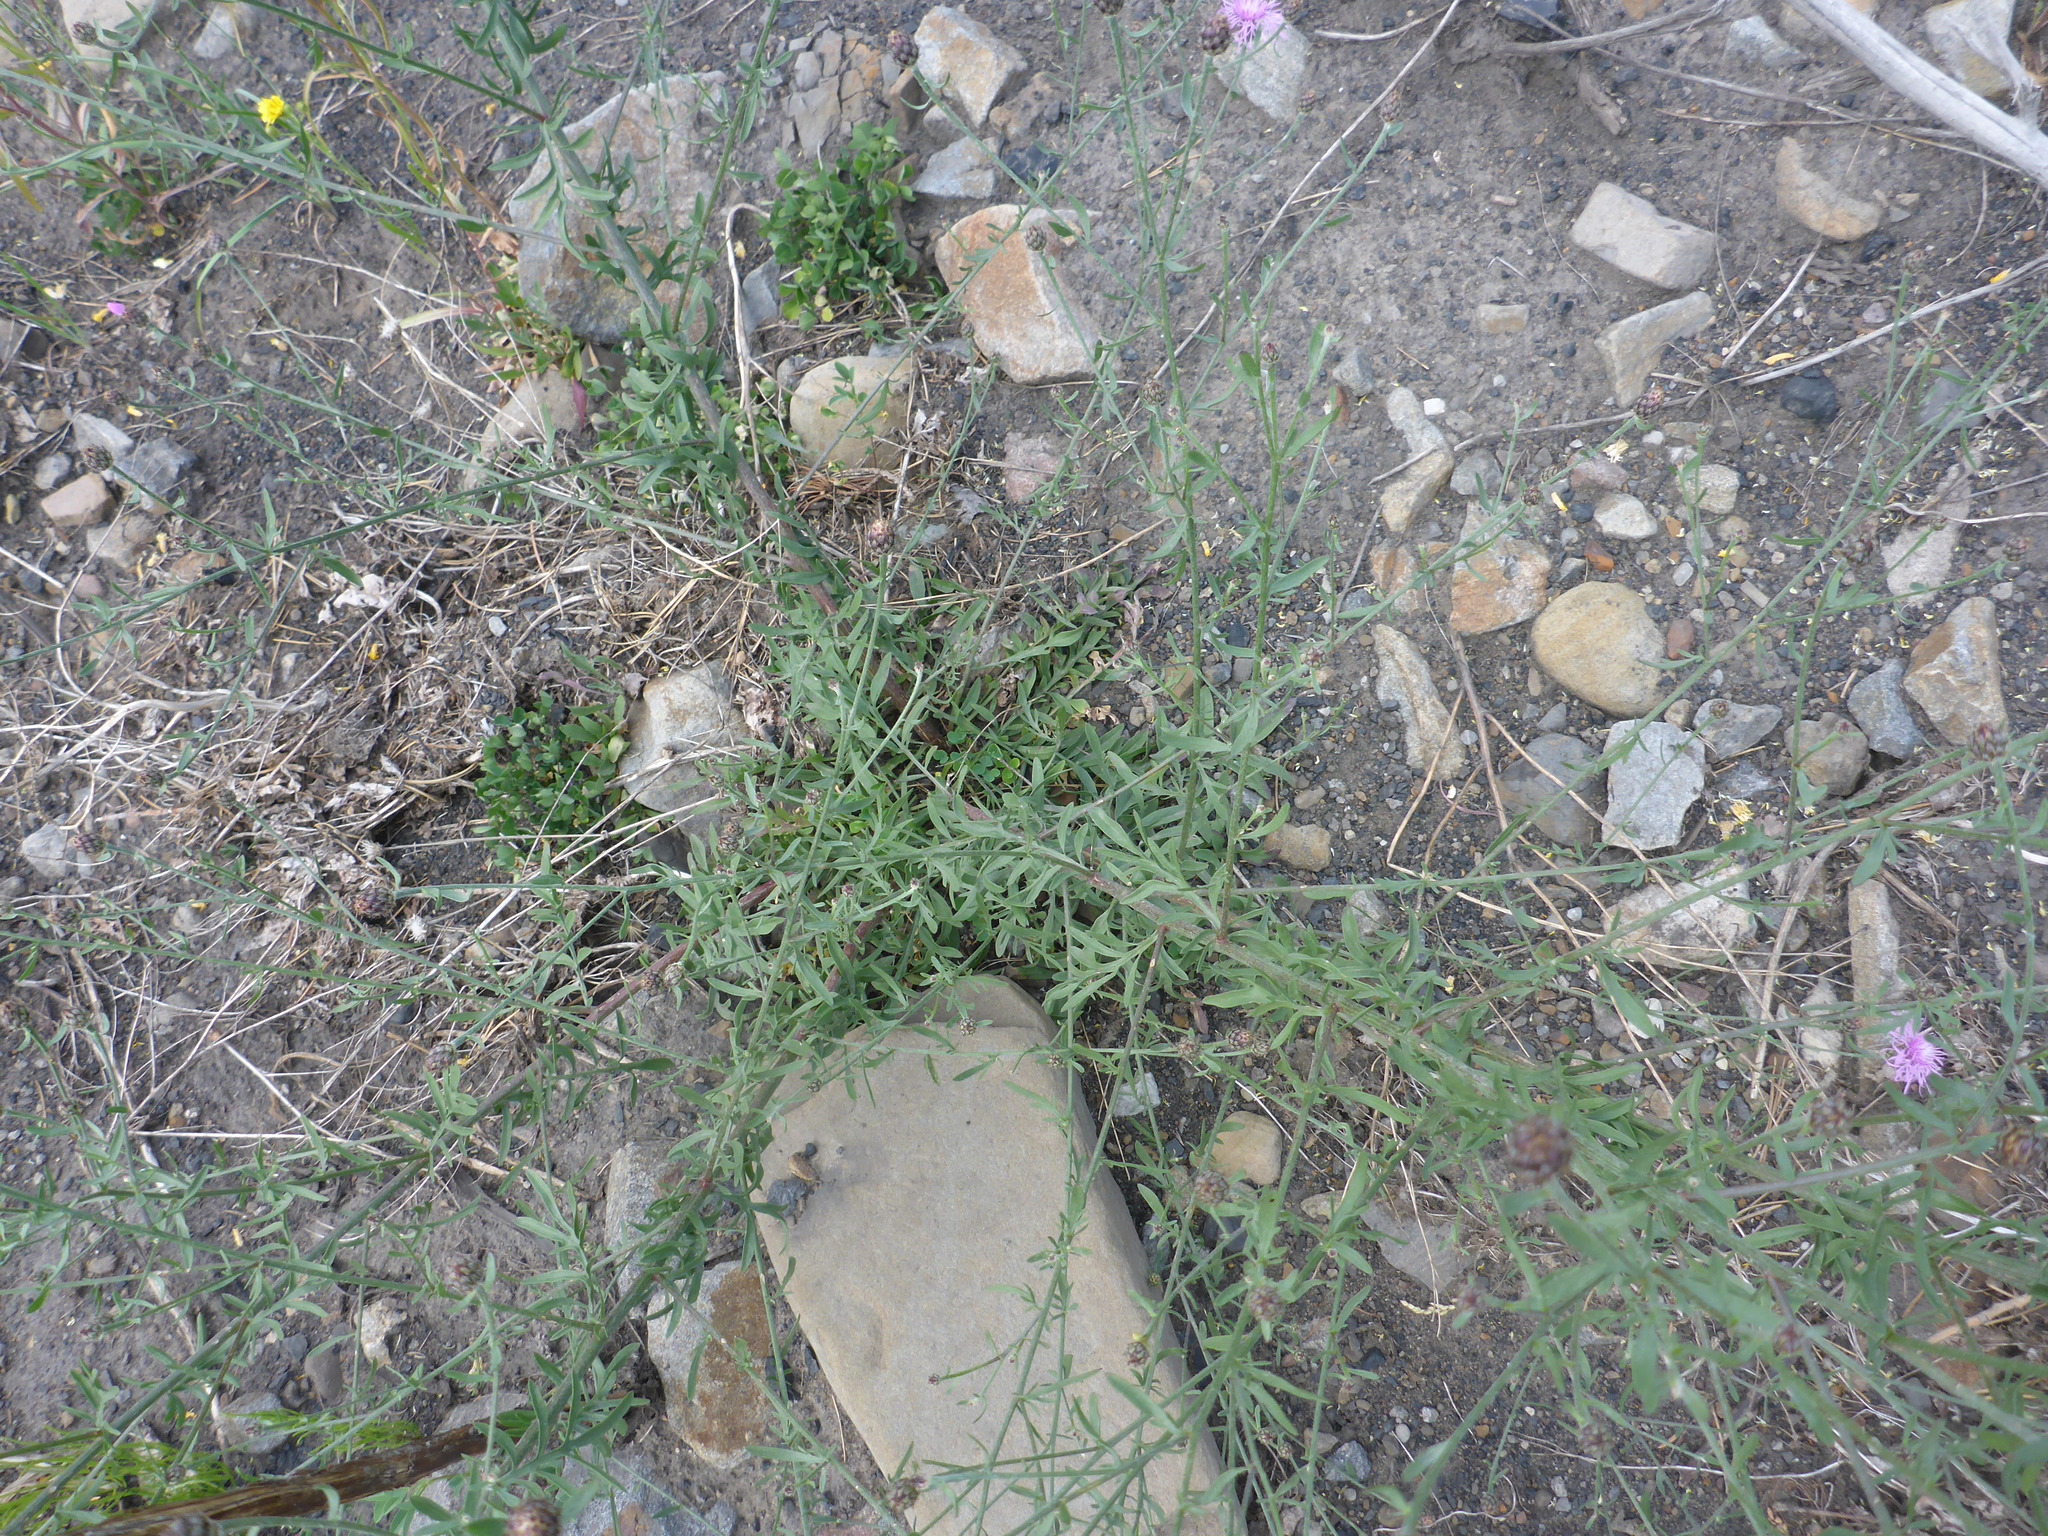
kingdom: Plantae
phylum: Tracheophyta
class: Magnoliopsida
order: Asterales
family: Asteraceae
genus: Centaurea
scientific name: Centaurea stoebe
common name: Spotted knapweed
